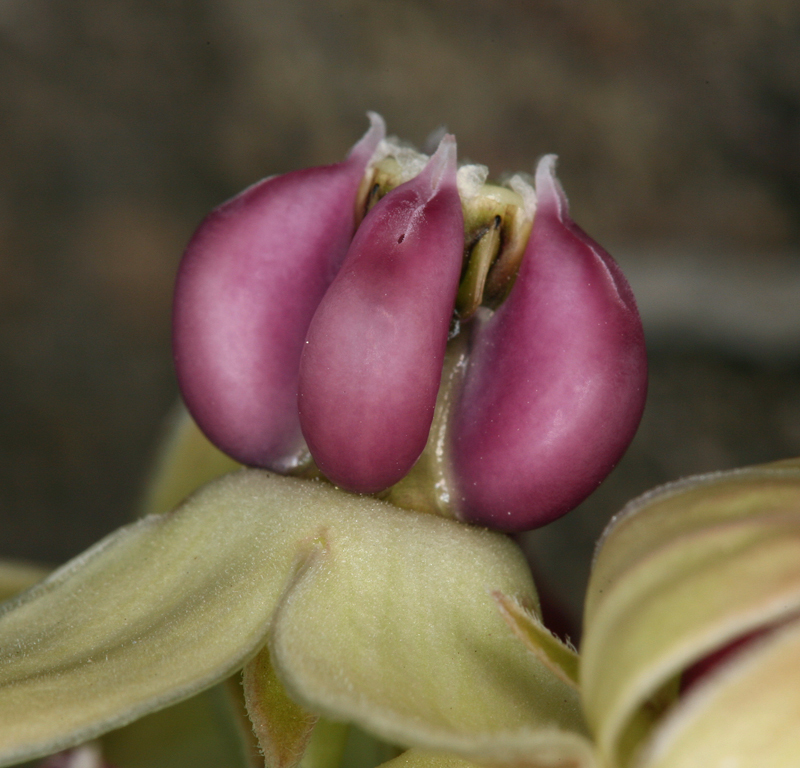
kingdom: Plantae
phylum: Tracheophyta
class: Magnoliopsida
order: Gentianales
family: Apocynaceae
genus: Asclepias
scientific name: Asclepias cryptoceras
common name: Humboldt mountains milkweed
